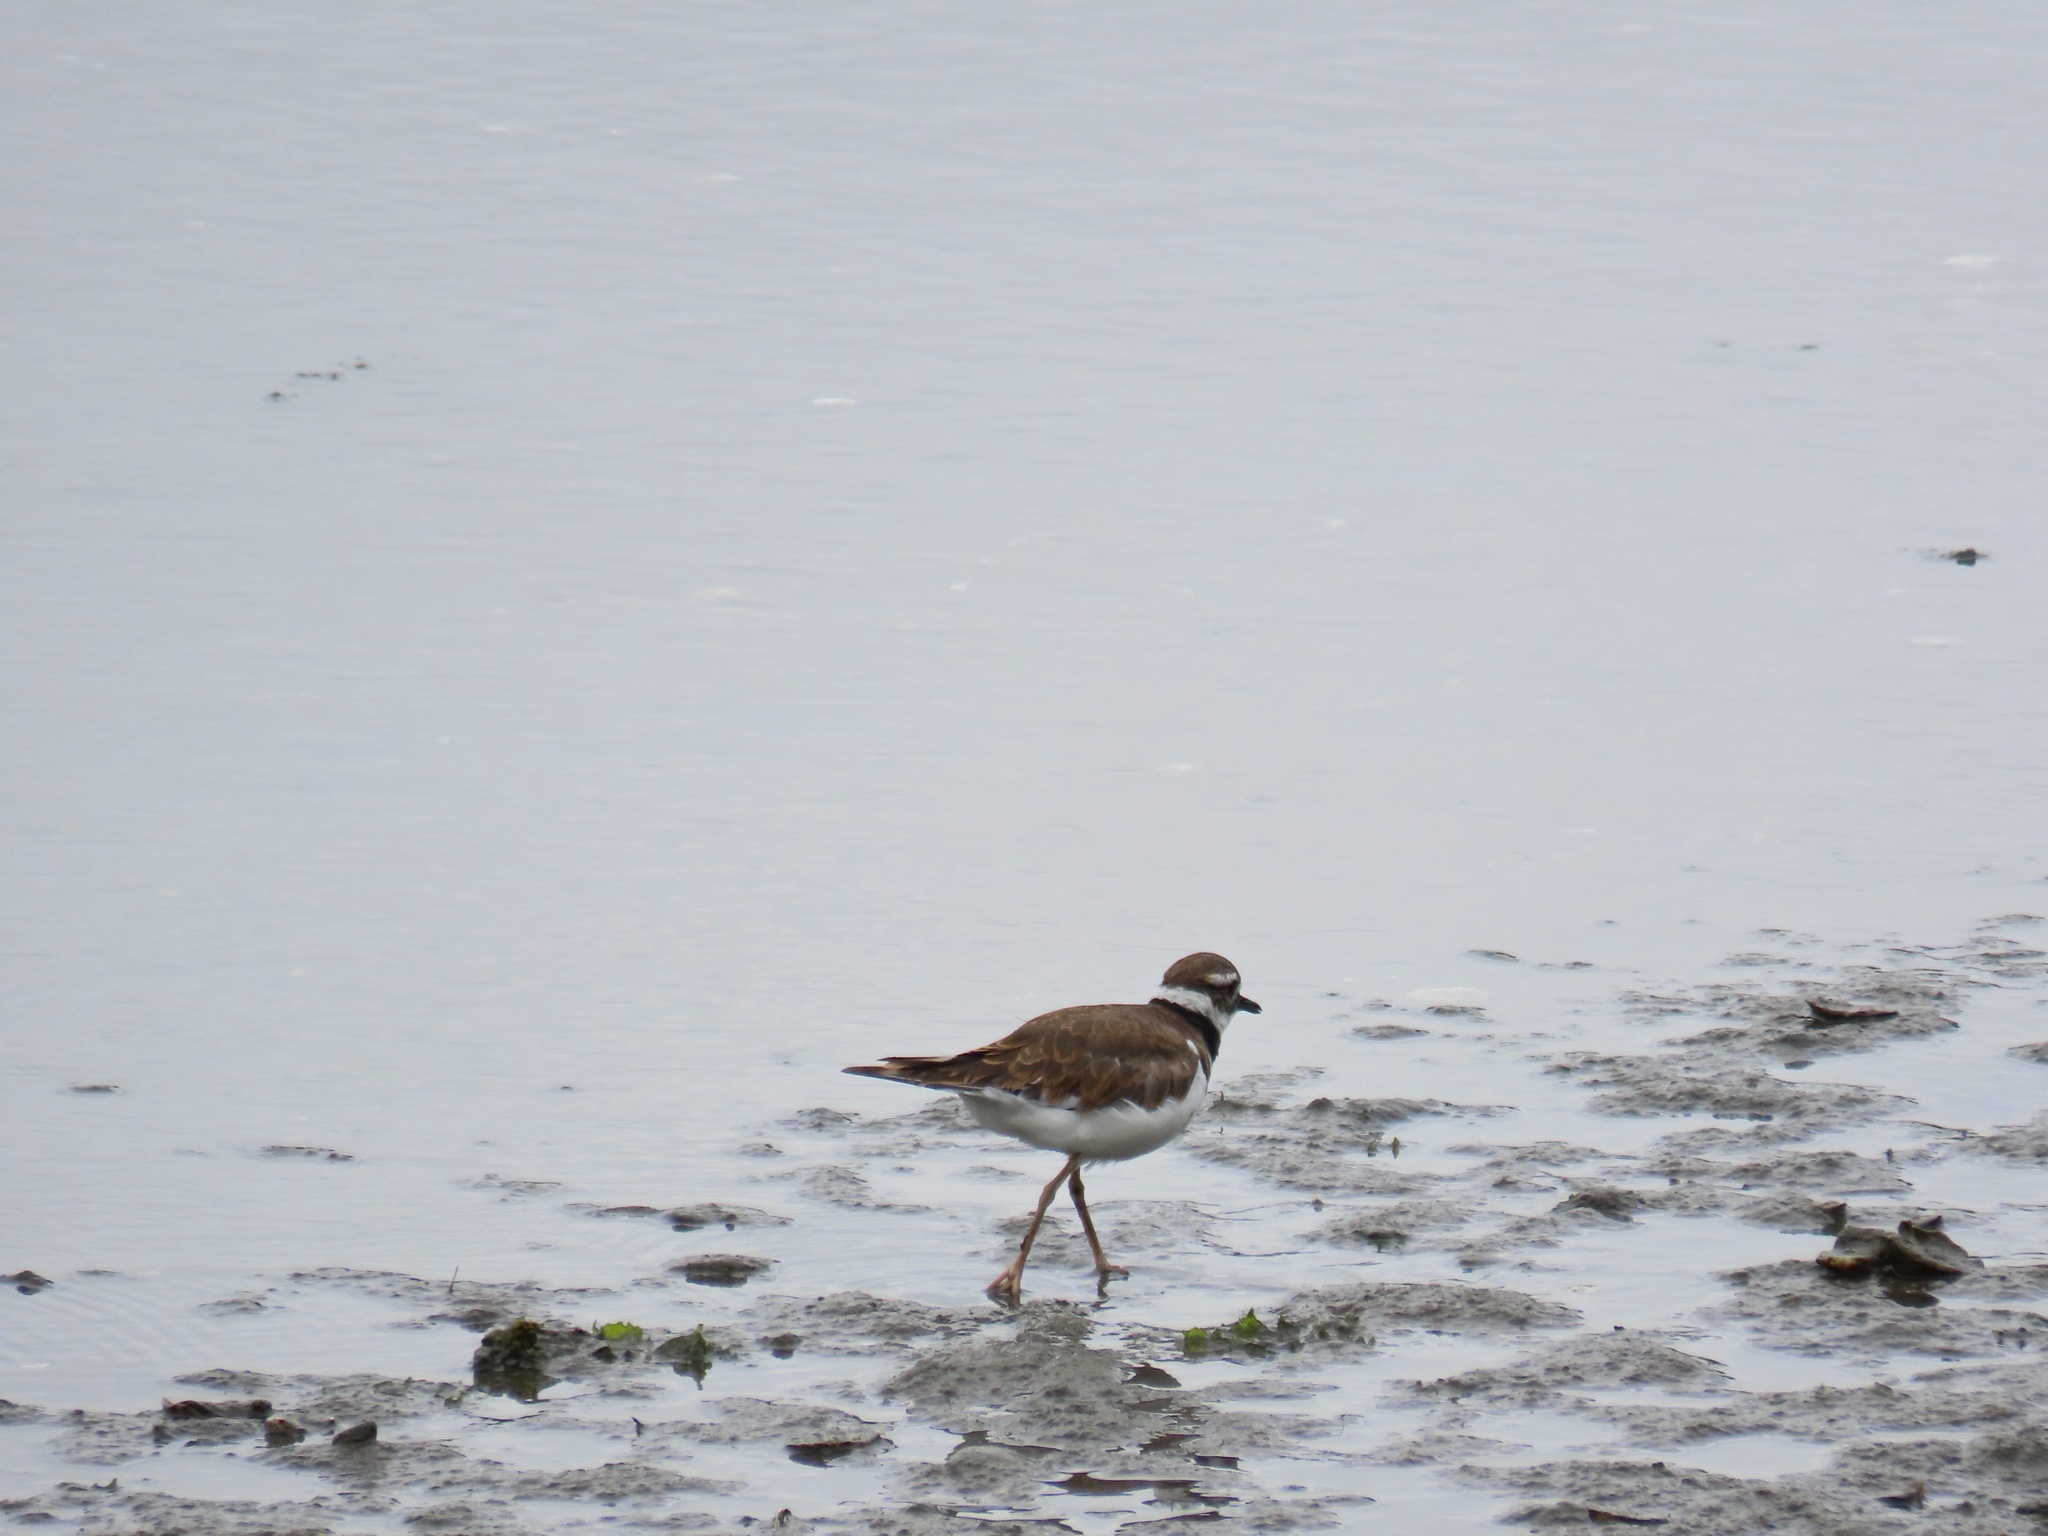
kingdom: Animalia
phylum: Chordata
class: Aves
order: Charadriiformes
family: Charadriidae
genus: Charadrius
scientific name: Charadrius vociferus
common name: Killdeer
